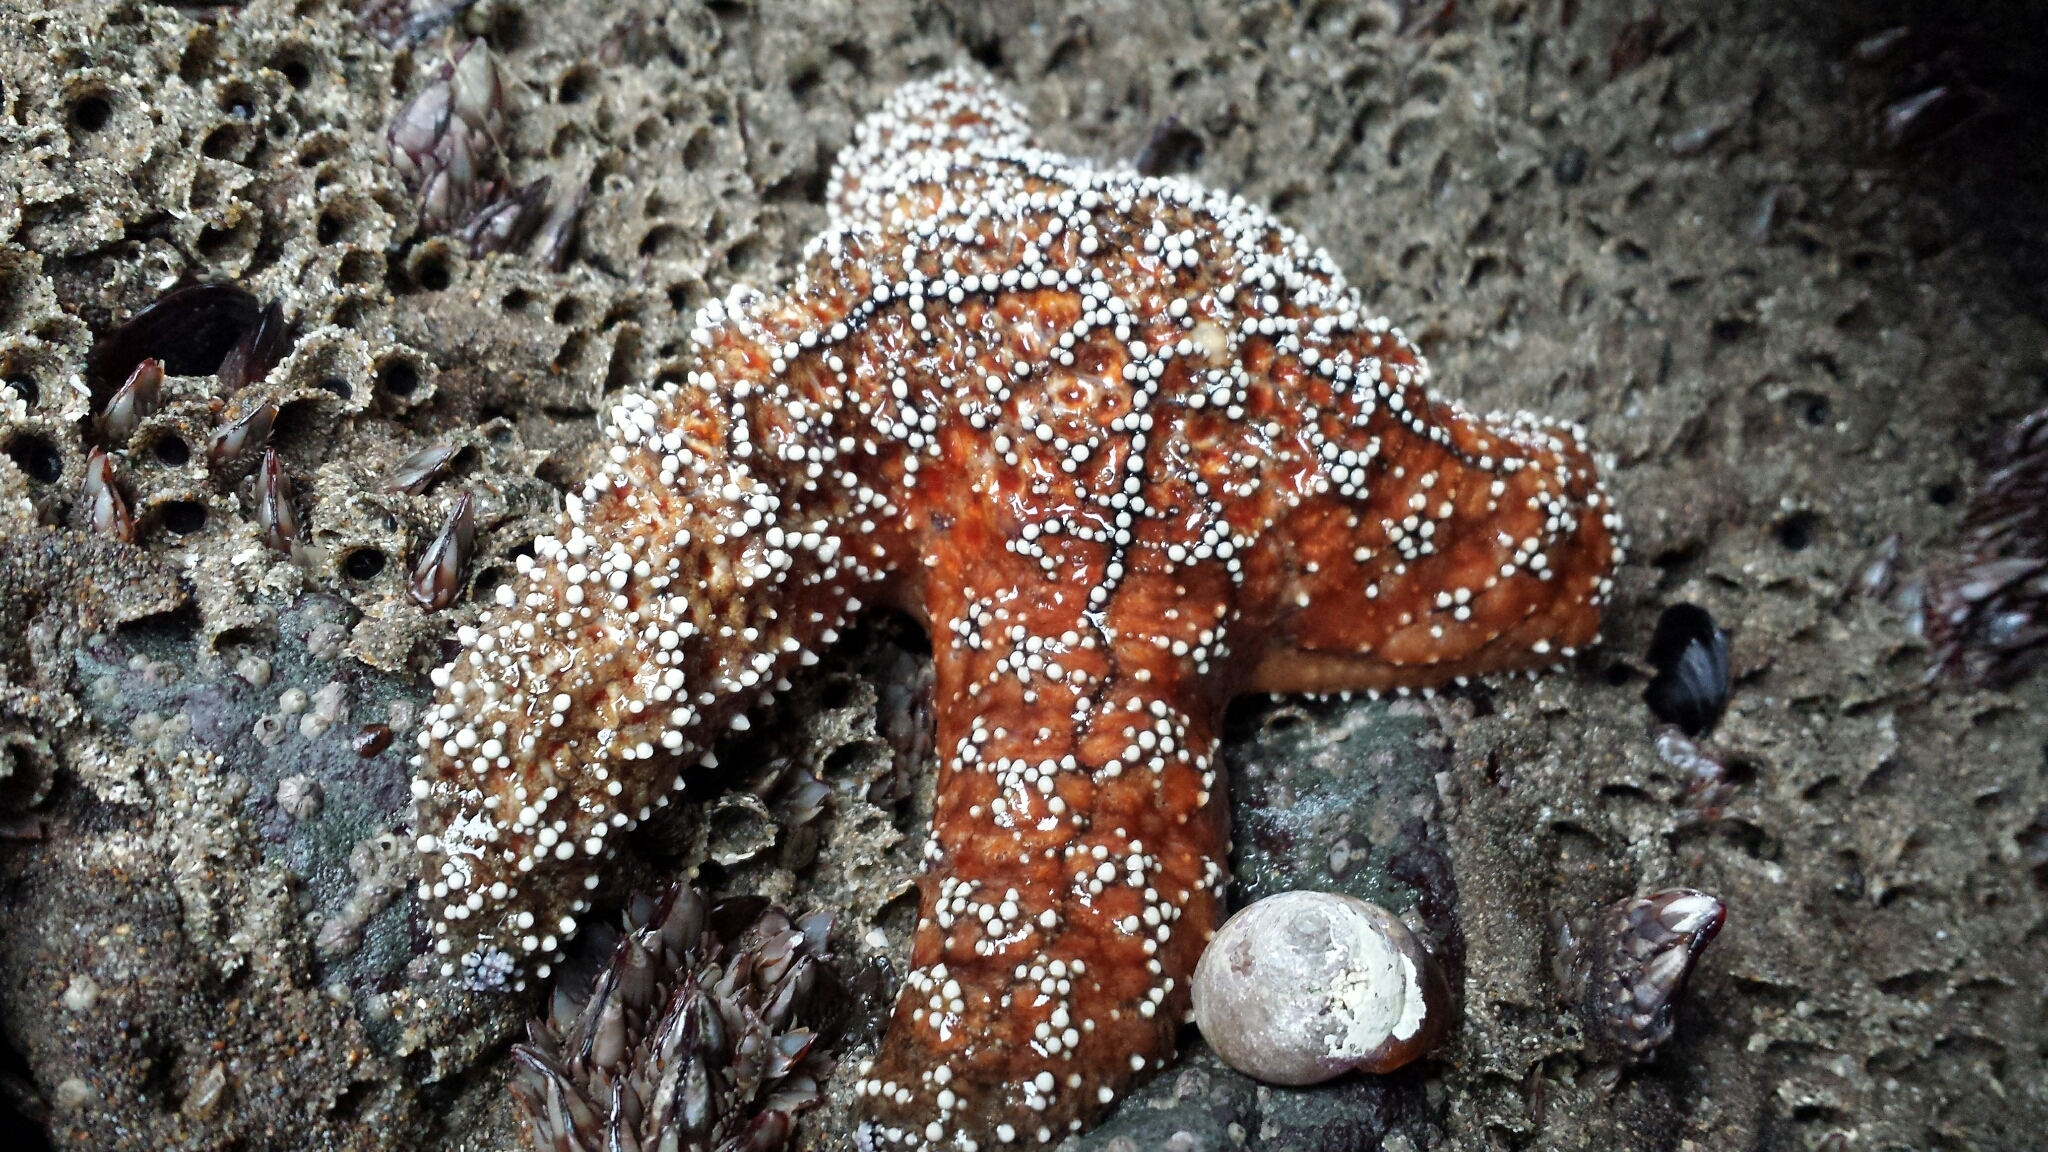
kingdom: Animalia
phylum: Echinodermata
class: Asteroidea
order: Forcipulatida
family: Asteriidae
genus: Pisaster
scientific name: Pisaster ochraceus
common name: Ochre stars
